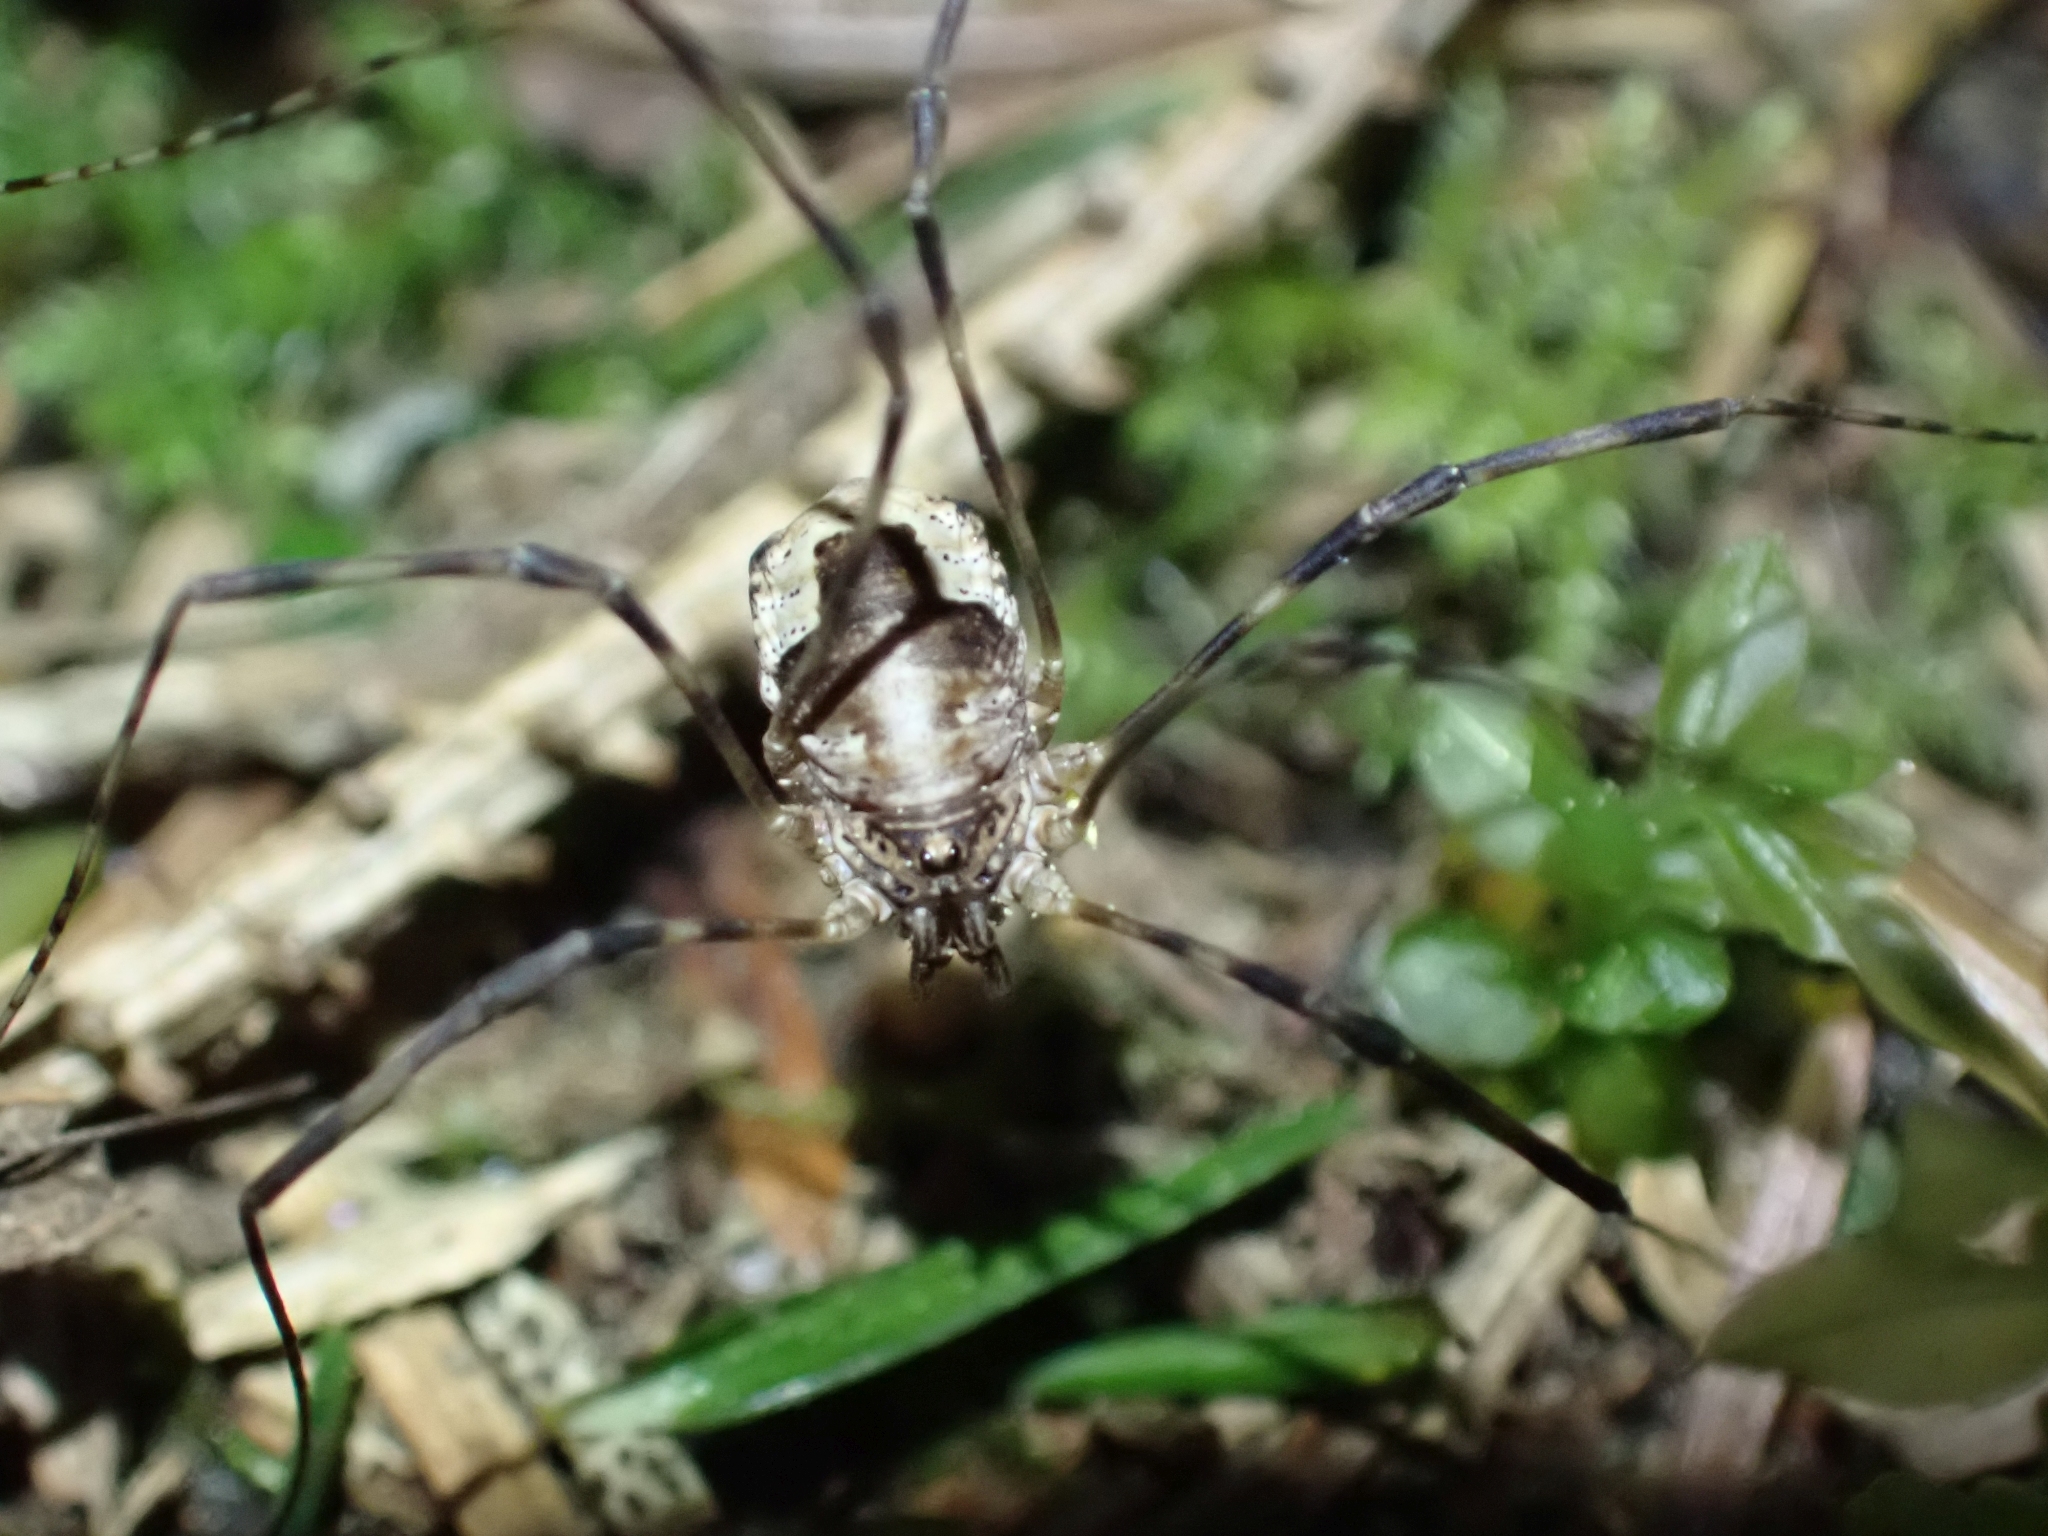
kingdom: Animalia
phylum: Arthropoda
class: Arachnida
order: Opiliones
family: Phalangiidae
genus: Leptobunus
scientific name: Leptobunus parvulus
